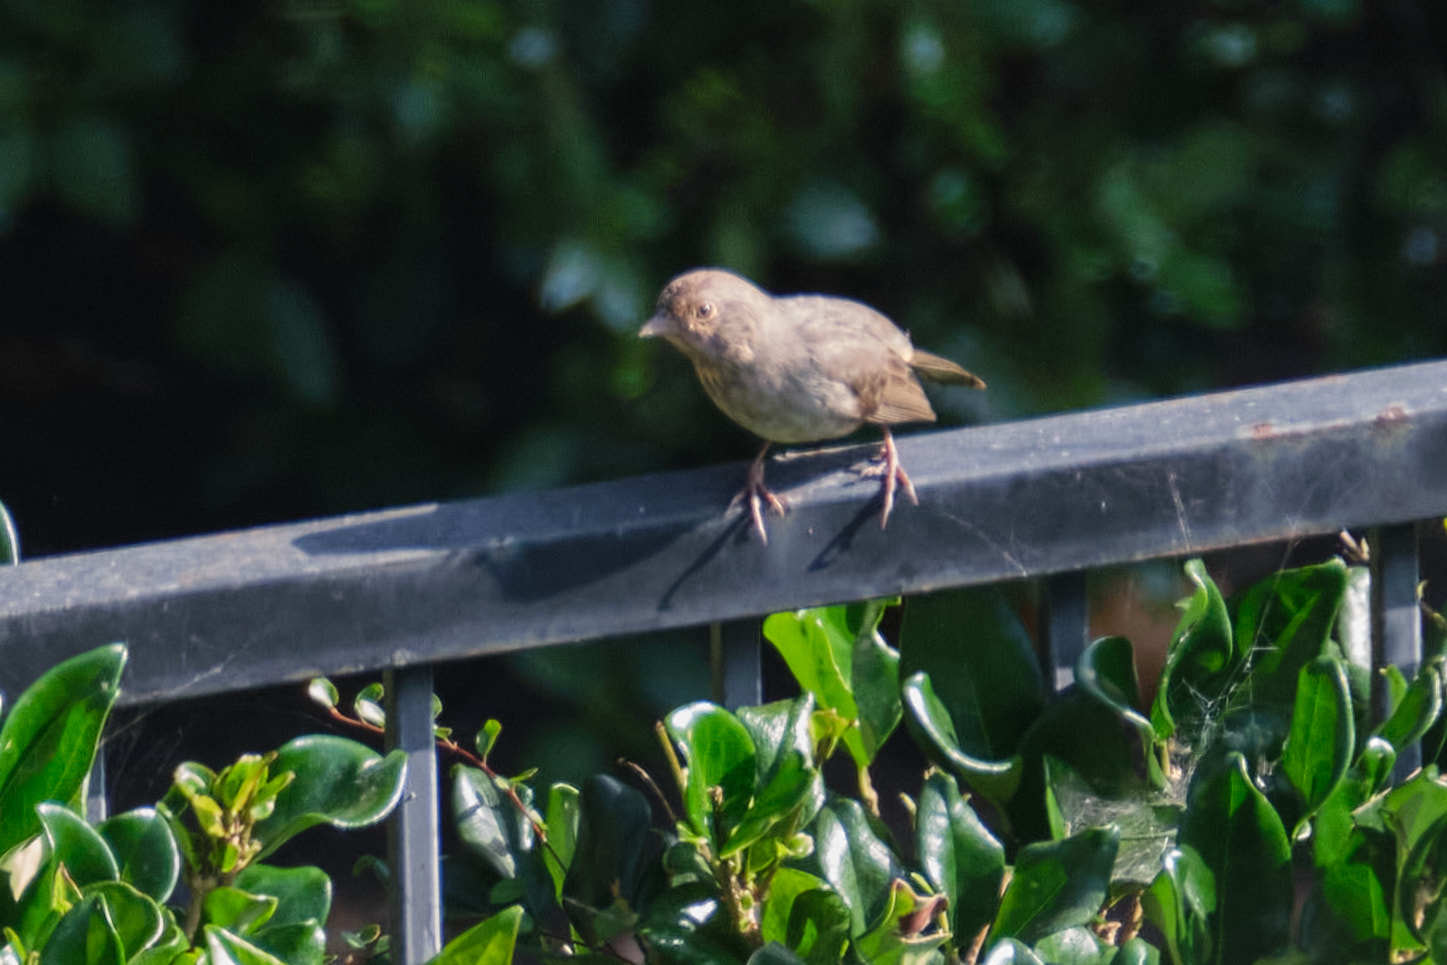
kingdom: Animalia
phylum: Chordata
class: Aves
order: Passeriformes
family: Passerellidae
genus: Melozone
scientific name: Melozone crissalis
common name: California towhee
